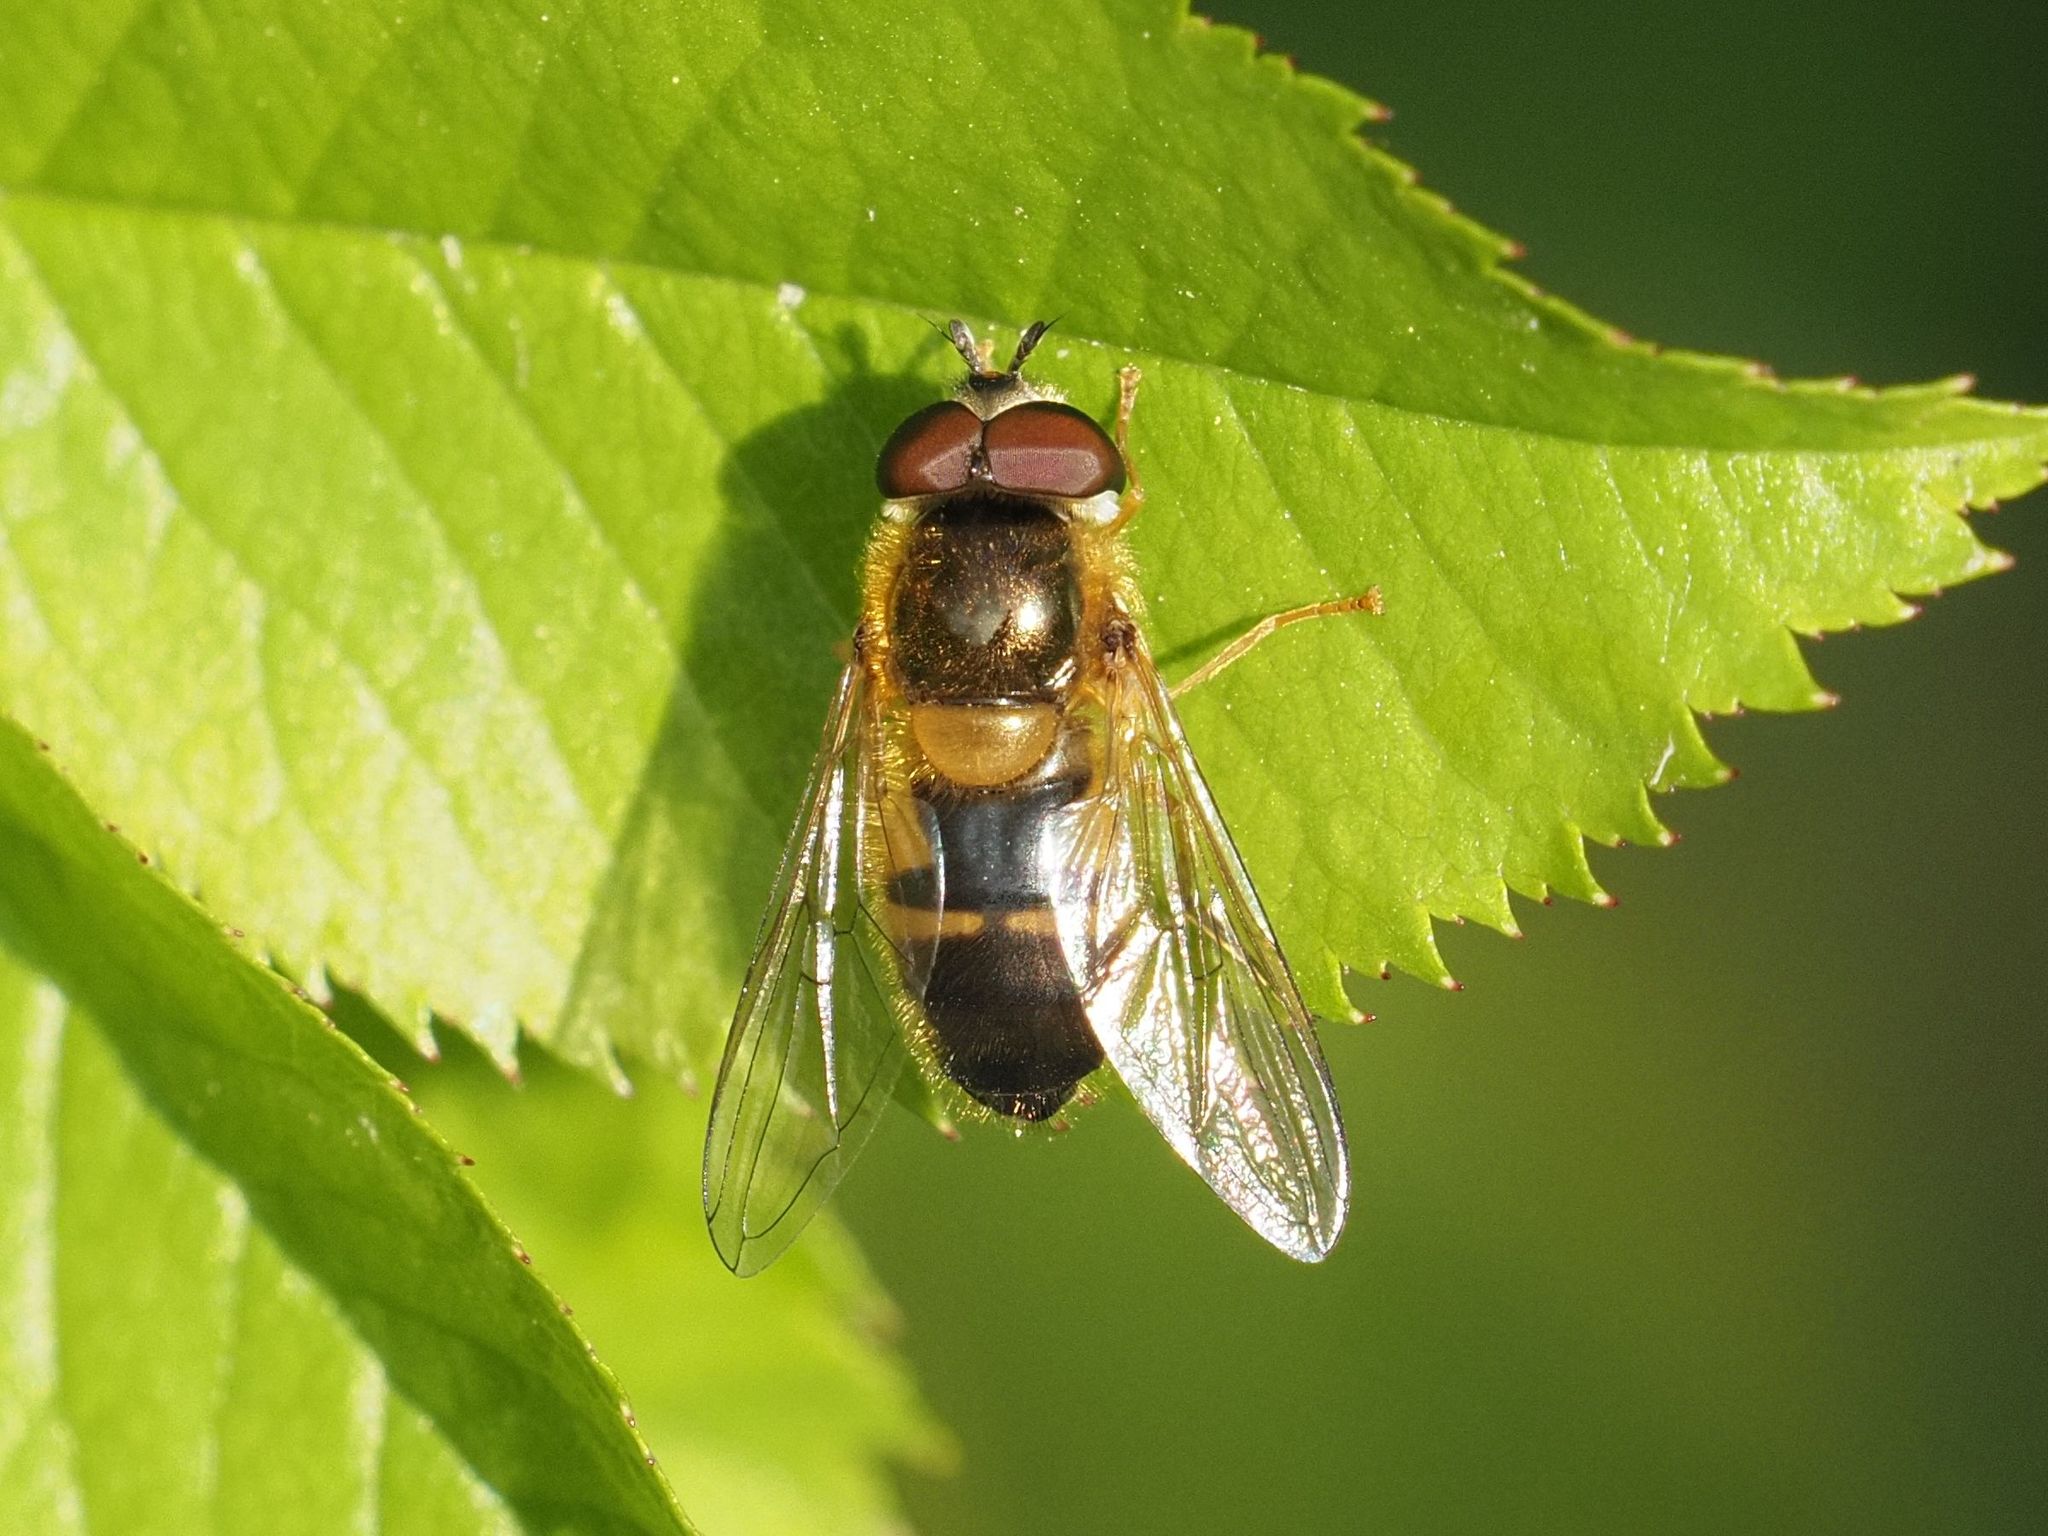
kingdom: Animalia
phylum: Arthropoda
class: Insecta
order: Diptera
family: Syrphidae
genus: Epistrophe
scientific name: Epistrophe eligans
